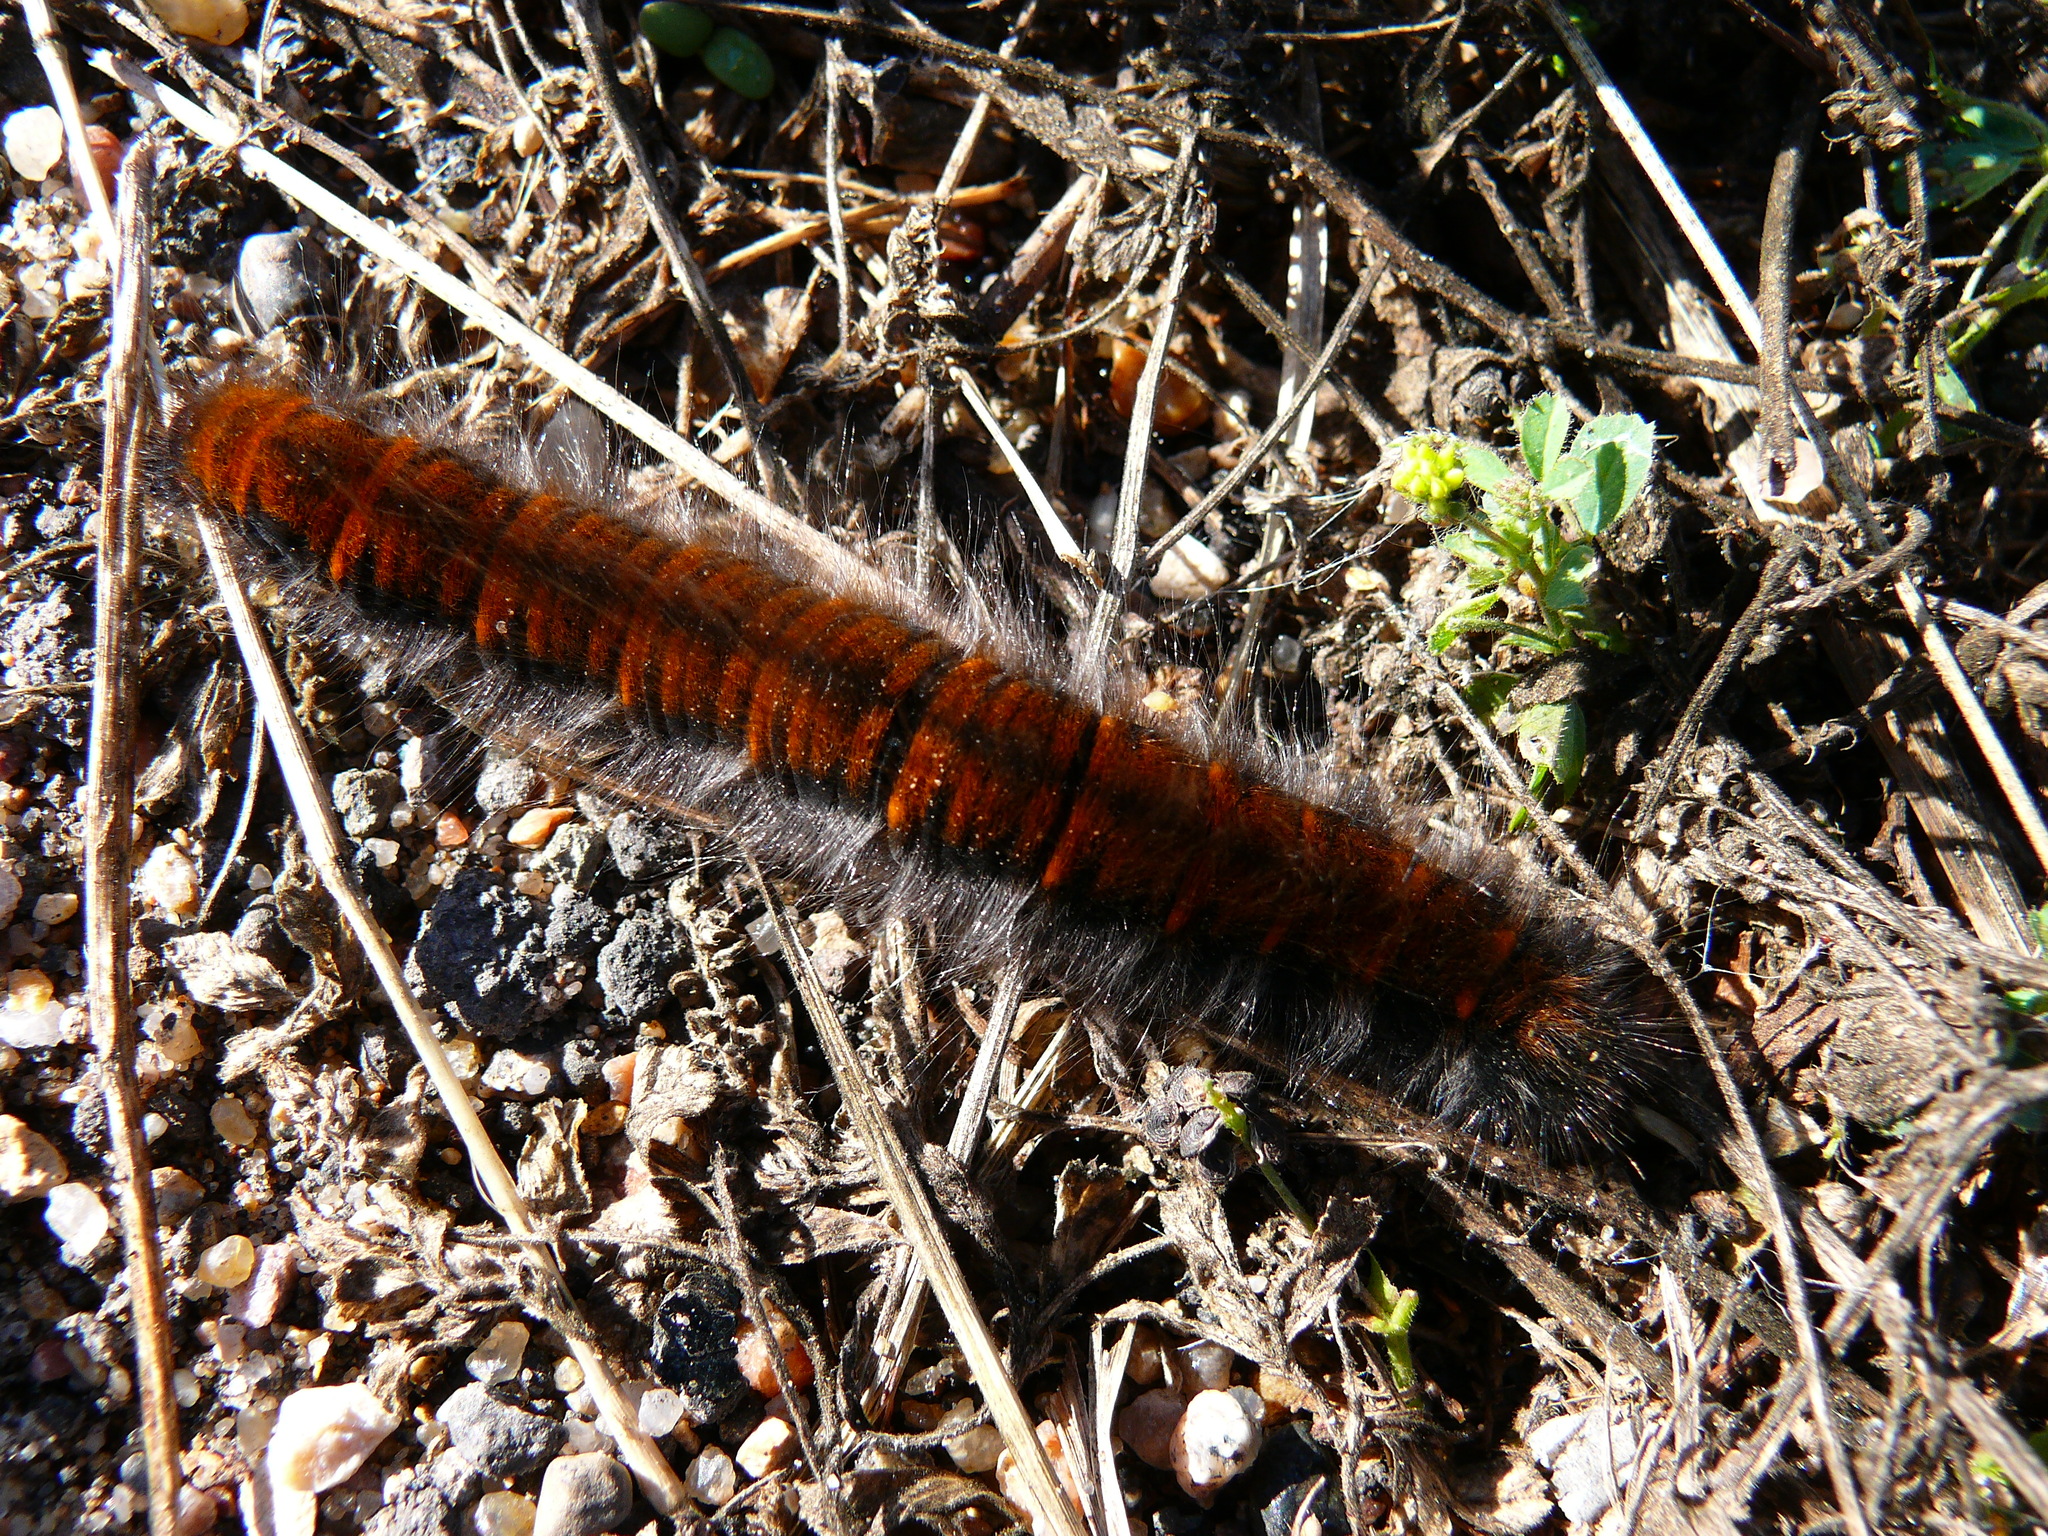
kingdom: Animalia
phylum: Arthropoda
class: Insecta
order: Lepidoptera
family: Lasiocampidae
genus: Macrothylacia
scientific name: Macrothylacia rubi
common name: Fox moth
